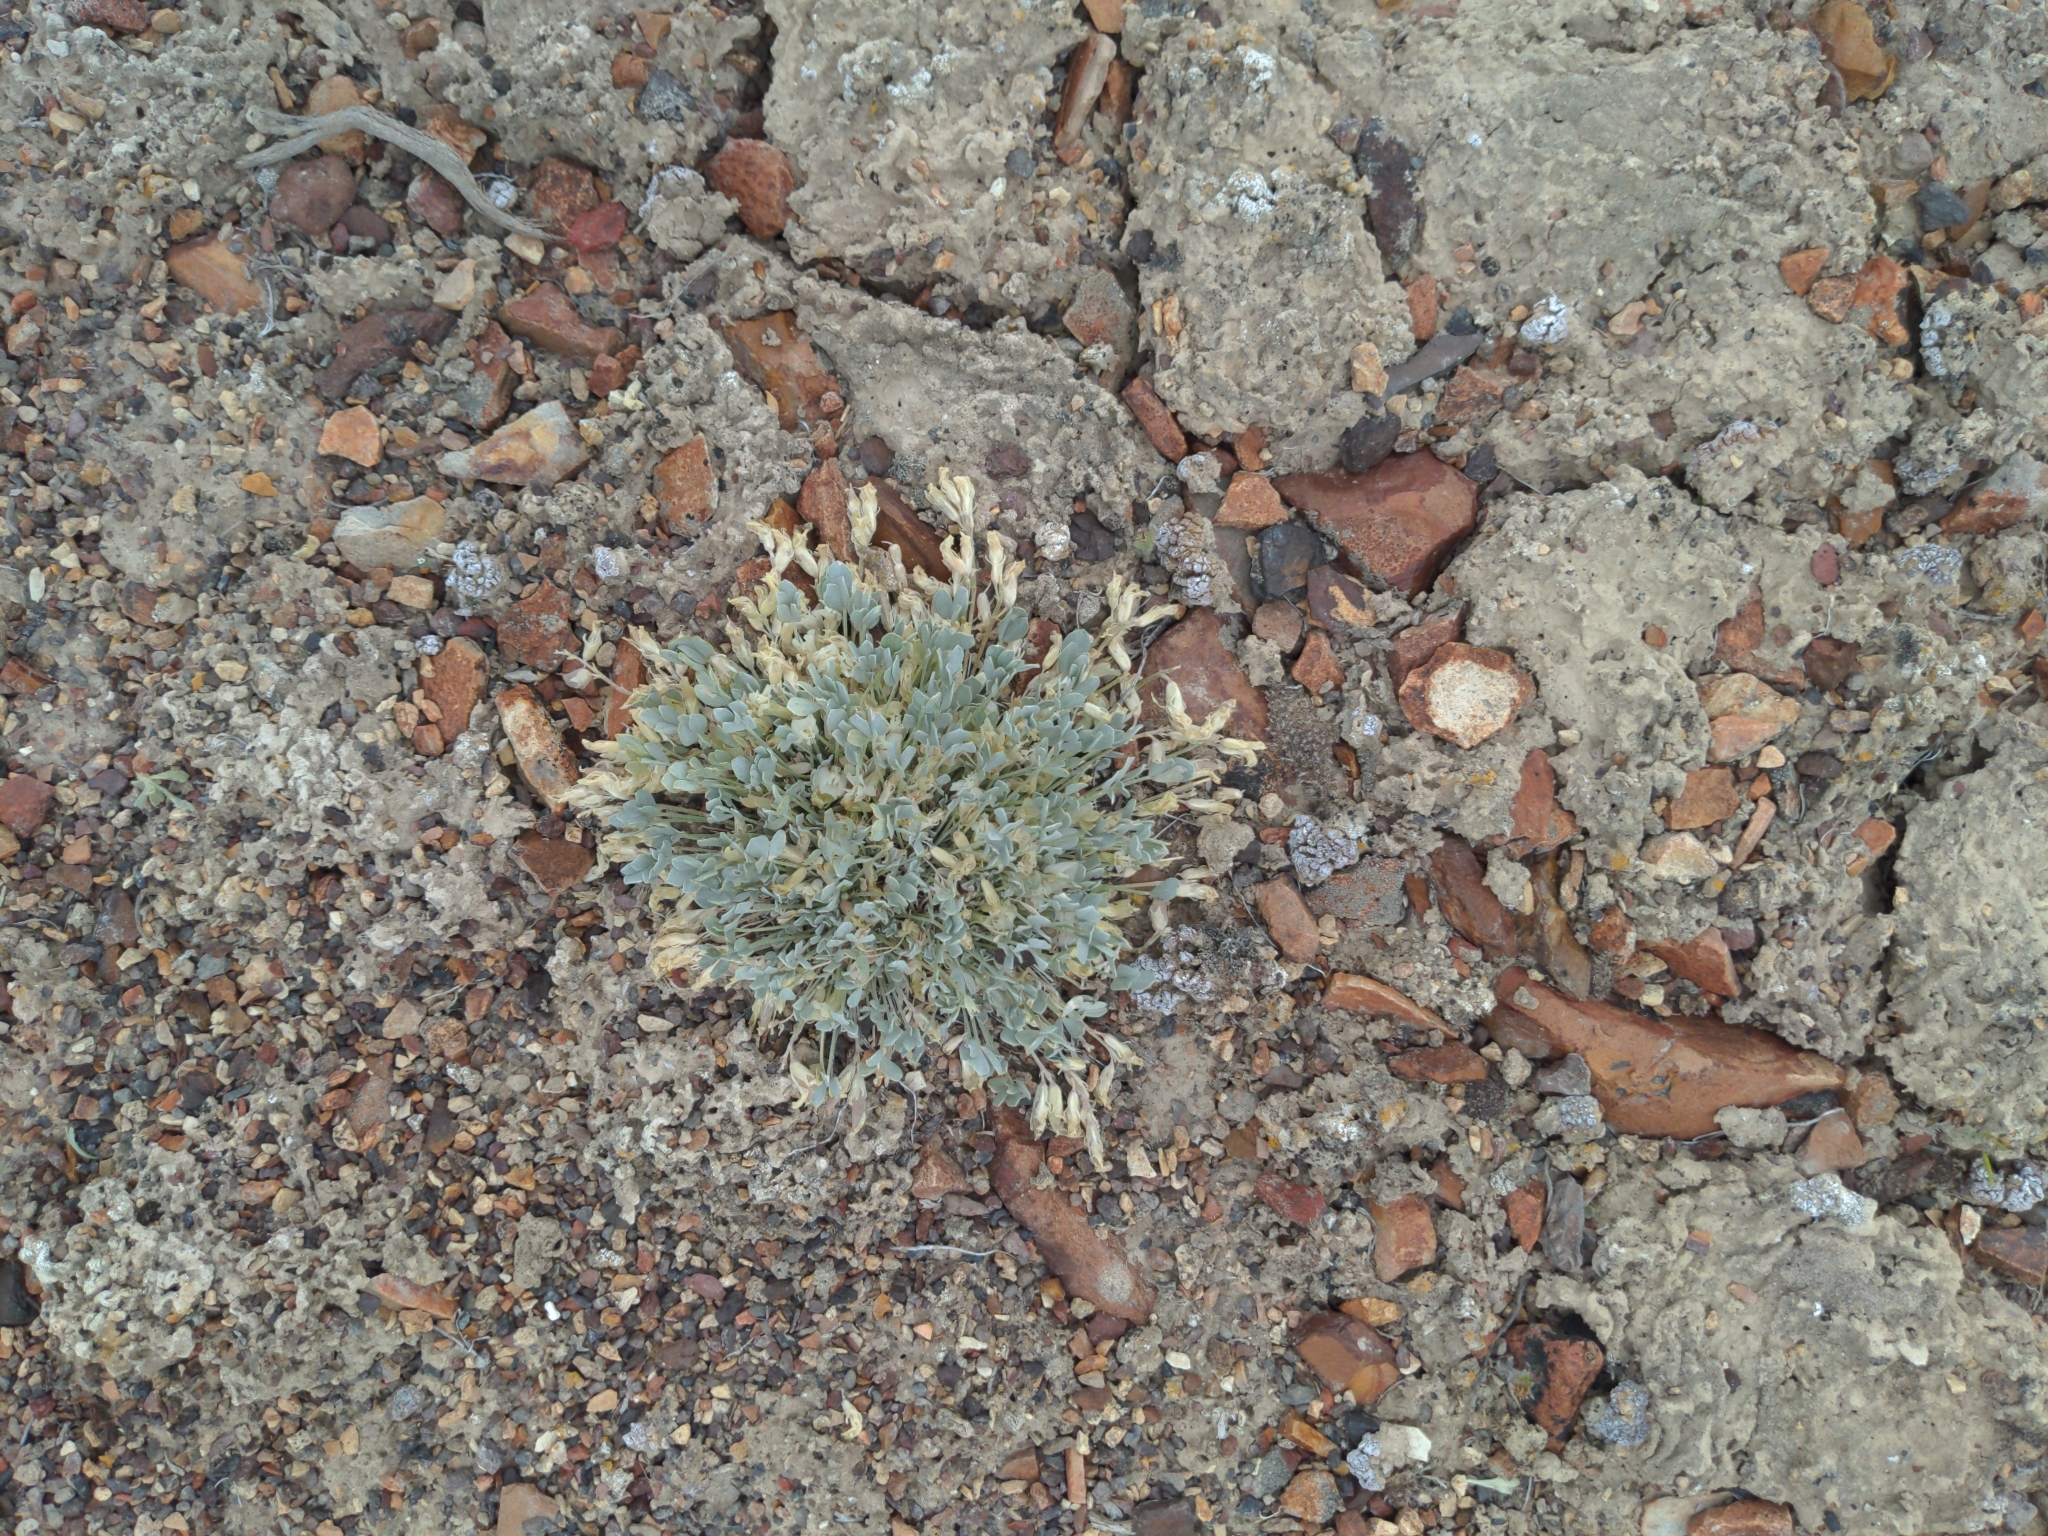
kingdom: Plantae
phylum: Tracheophyta
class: Magnoliopsida
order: Fabales
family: Fabaceae
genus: Astragalus
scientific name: Astragalus calycosus
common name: King's milkvetch
